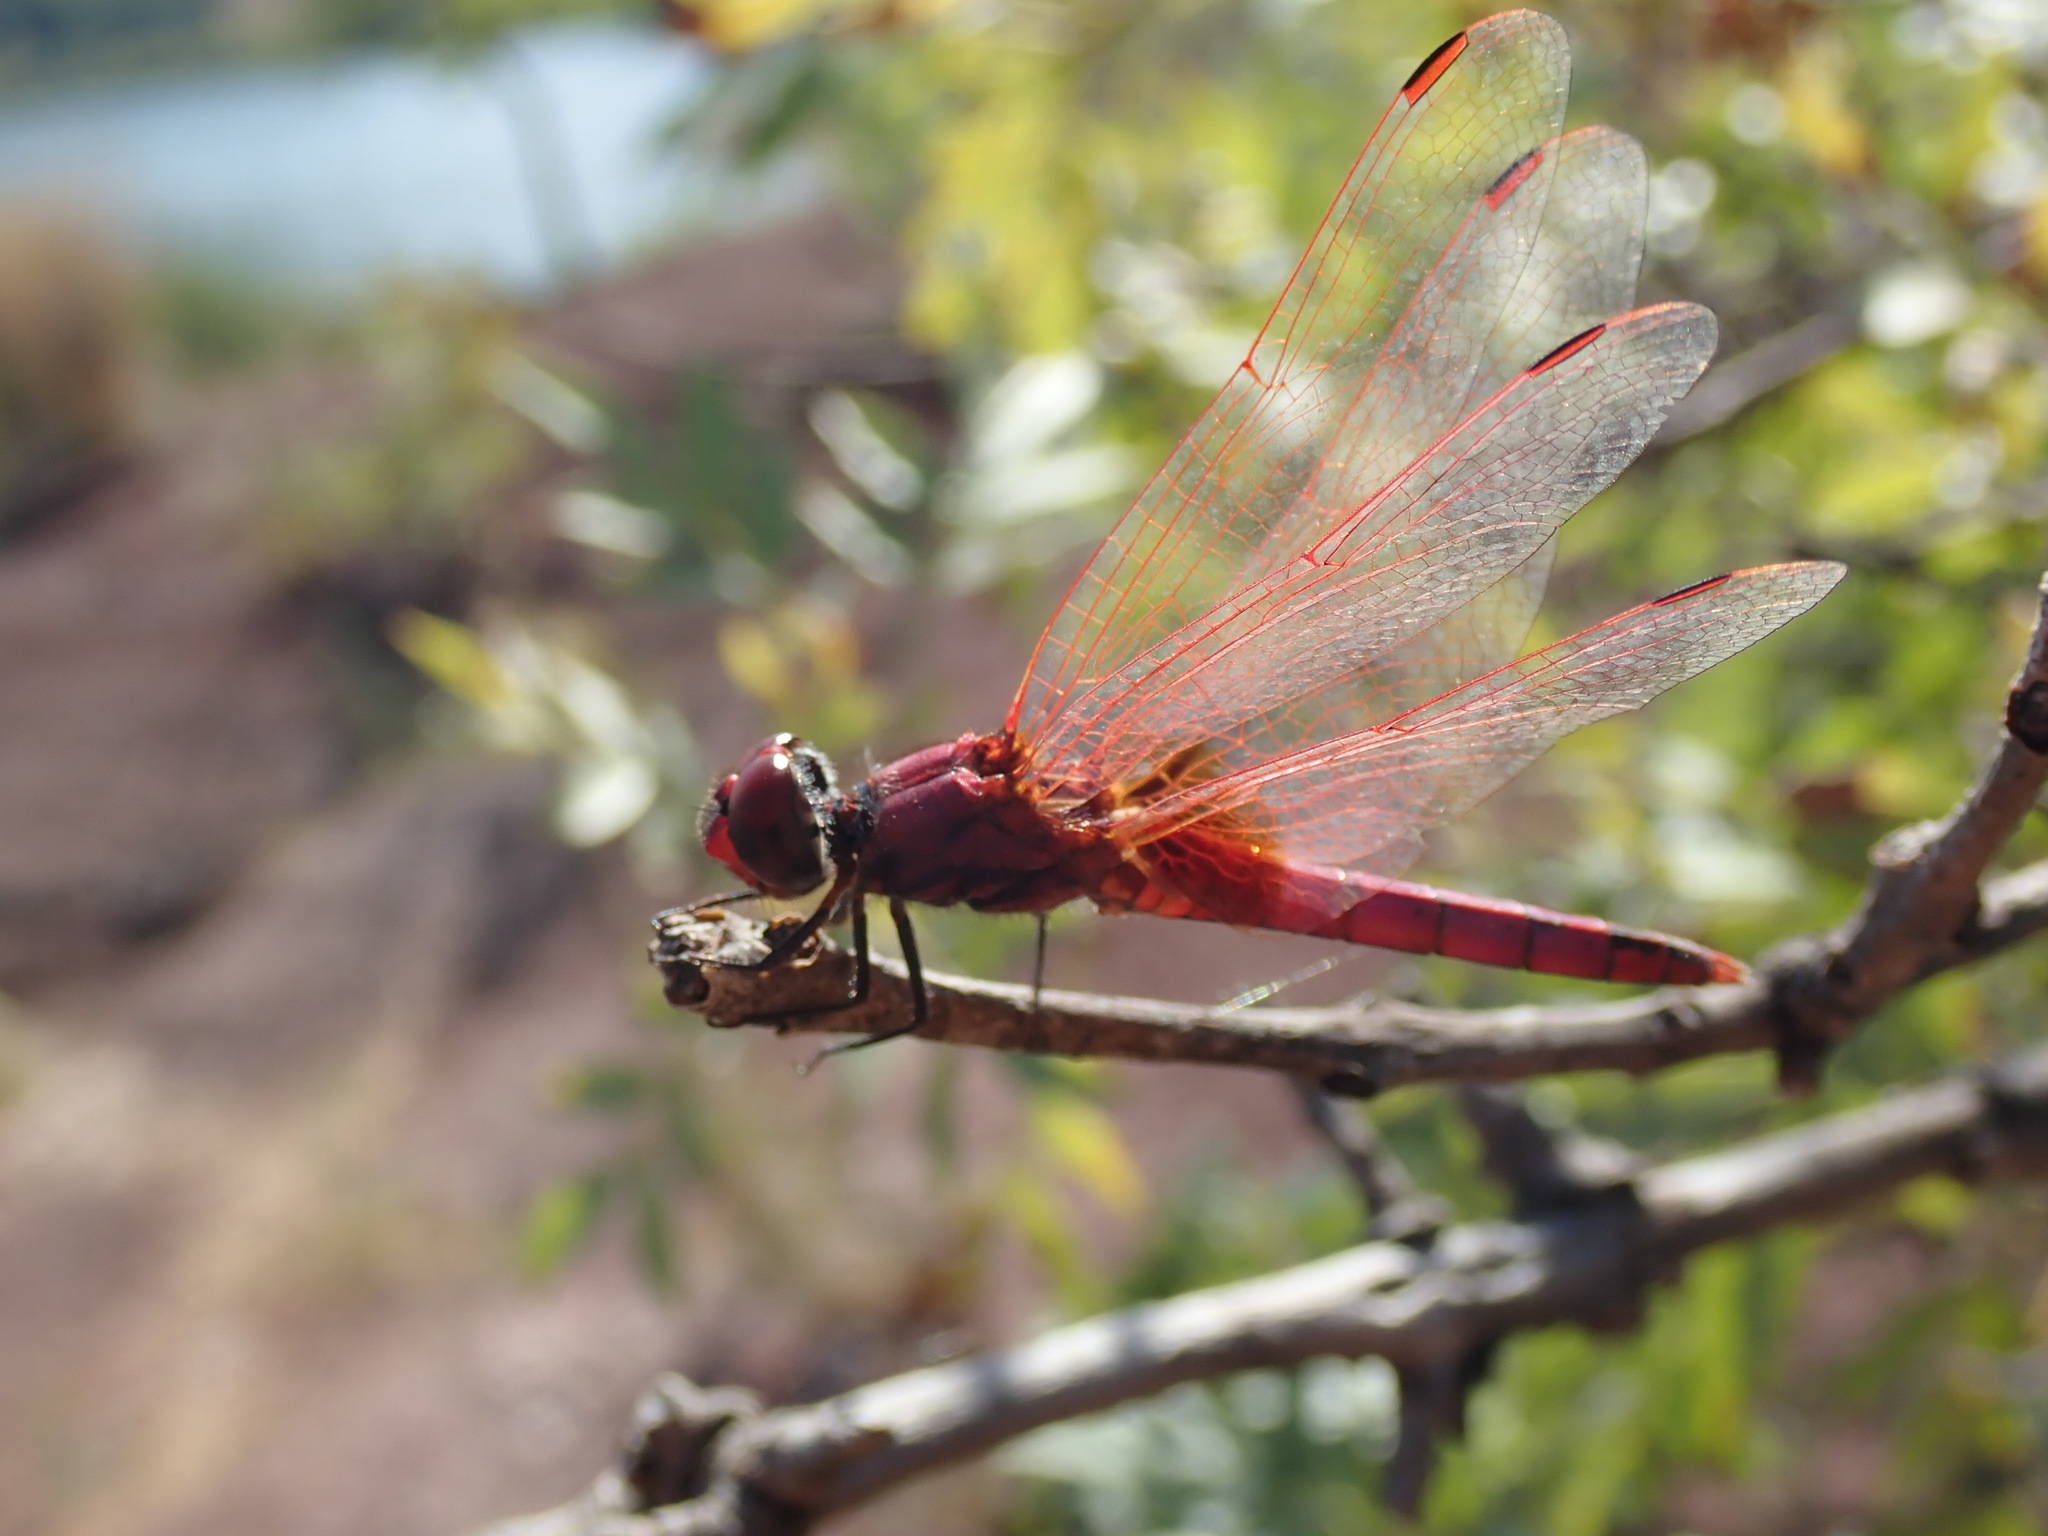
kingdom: Animalia
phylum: Arthropoda
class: Insecta
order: Odonata
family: Libellulidae
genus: Trithemis
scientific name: Trithemis annulata
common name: Violet dropwing
